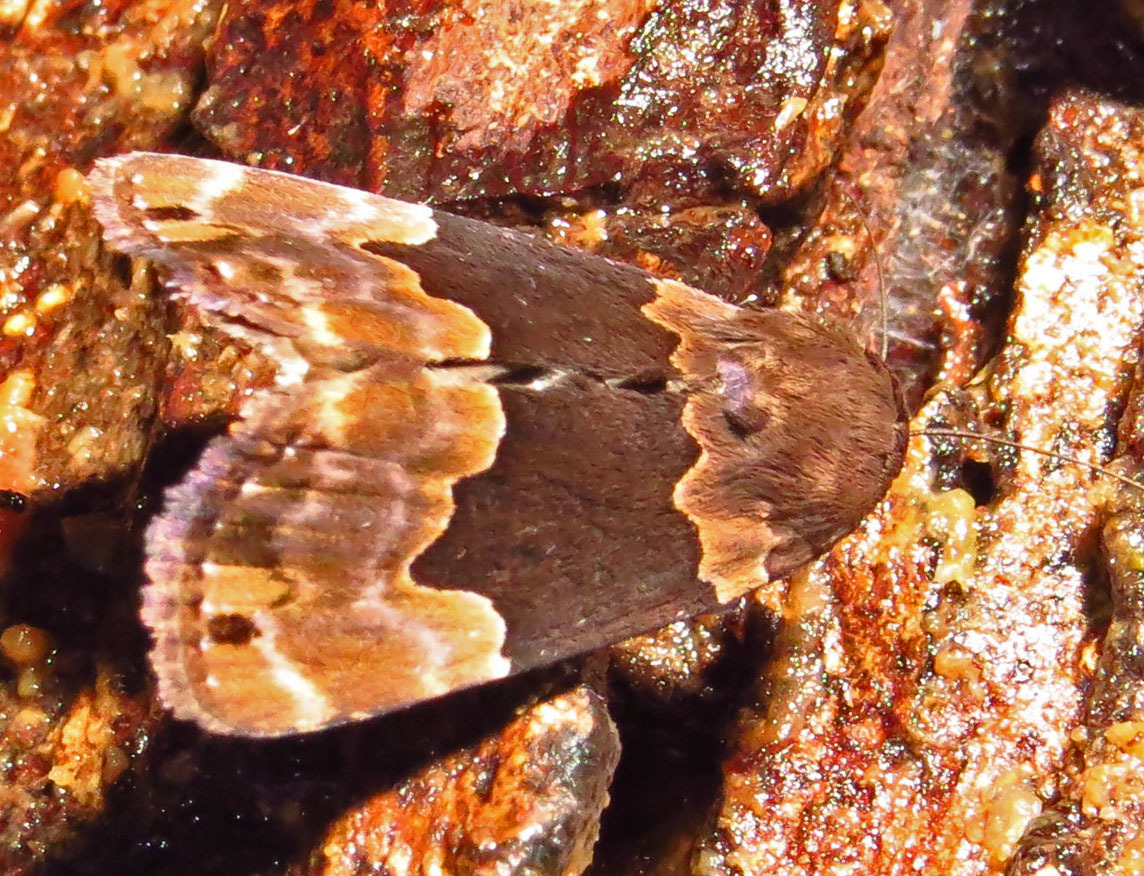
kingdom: Animalia
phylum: Arthropoda
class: Insecta
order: Lepidoptera
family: Erebidae
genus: Dinumma
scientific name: Dinumma deponens
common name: Purplish moth
